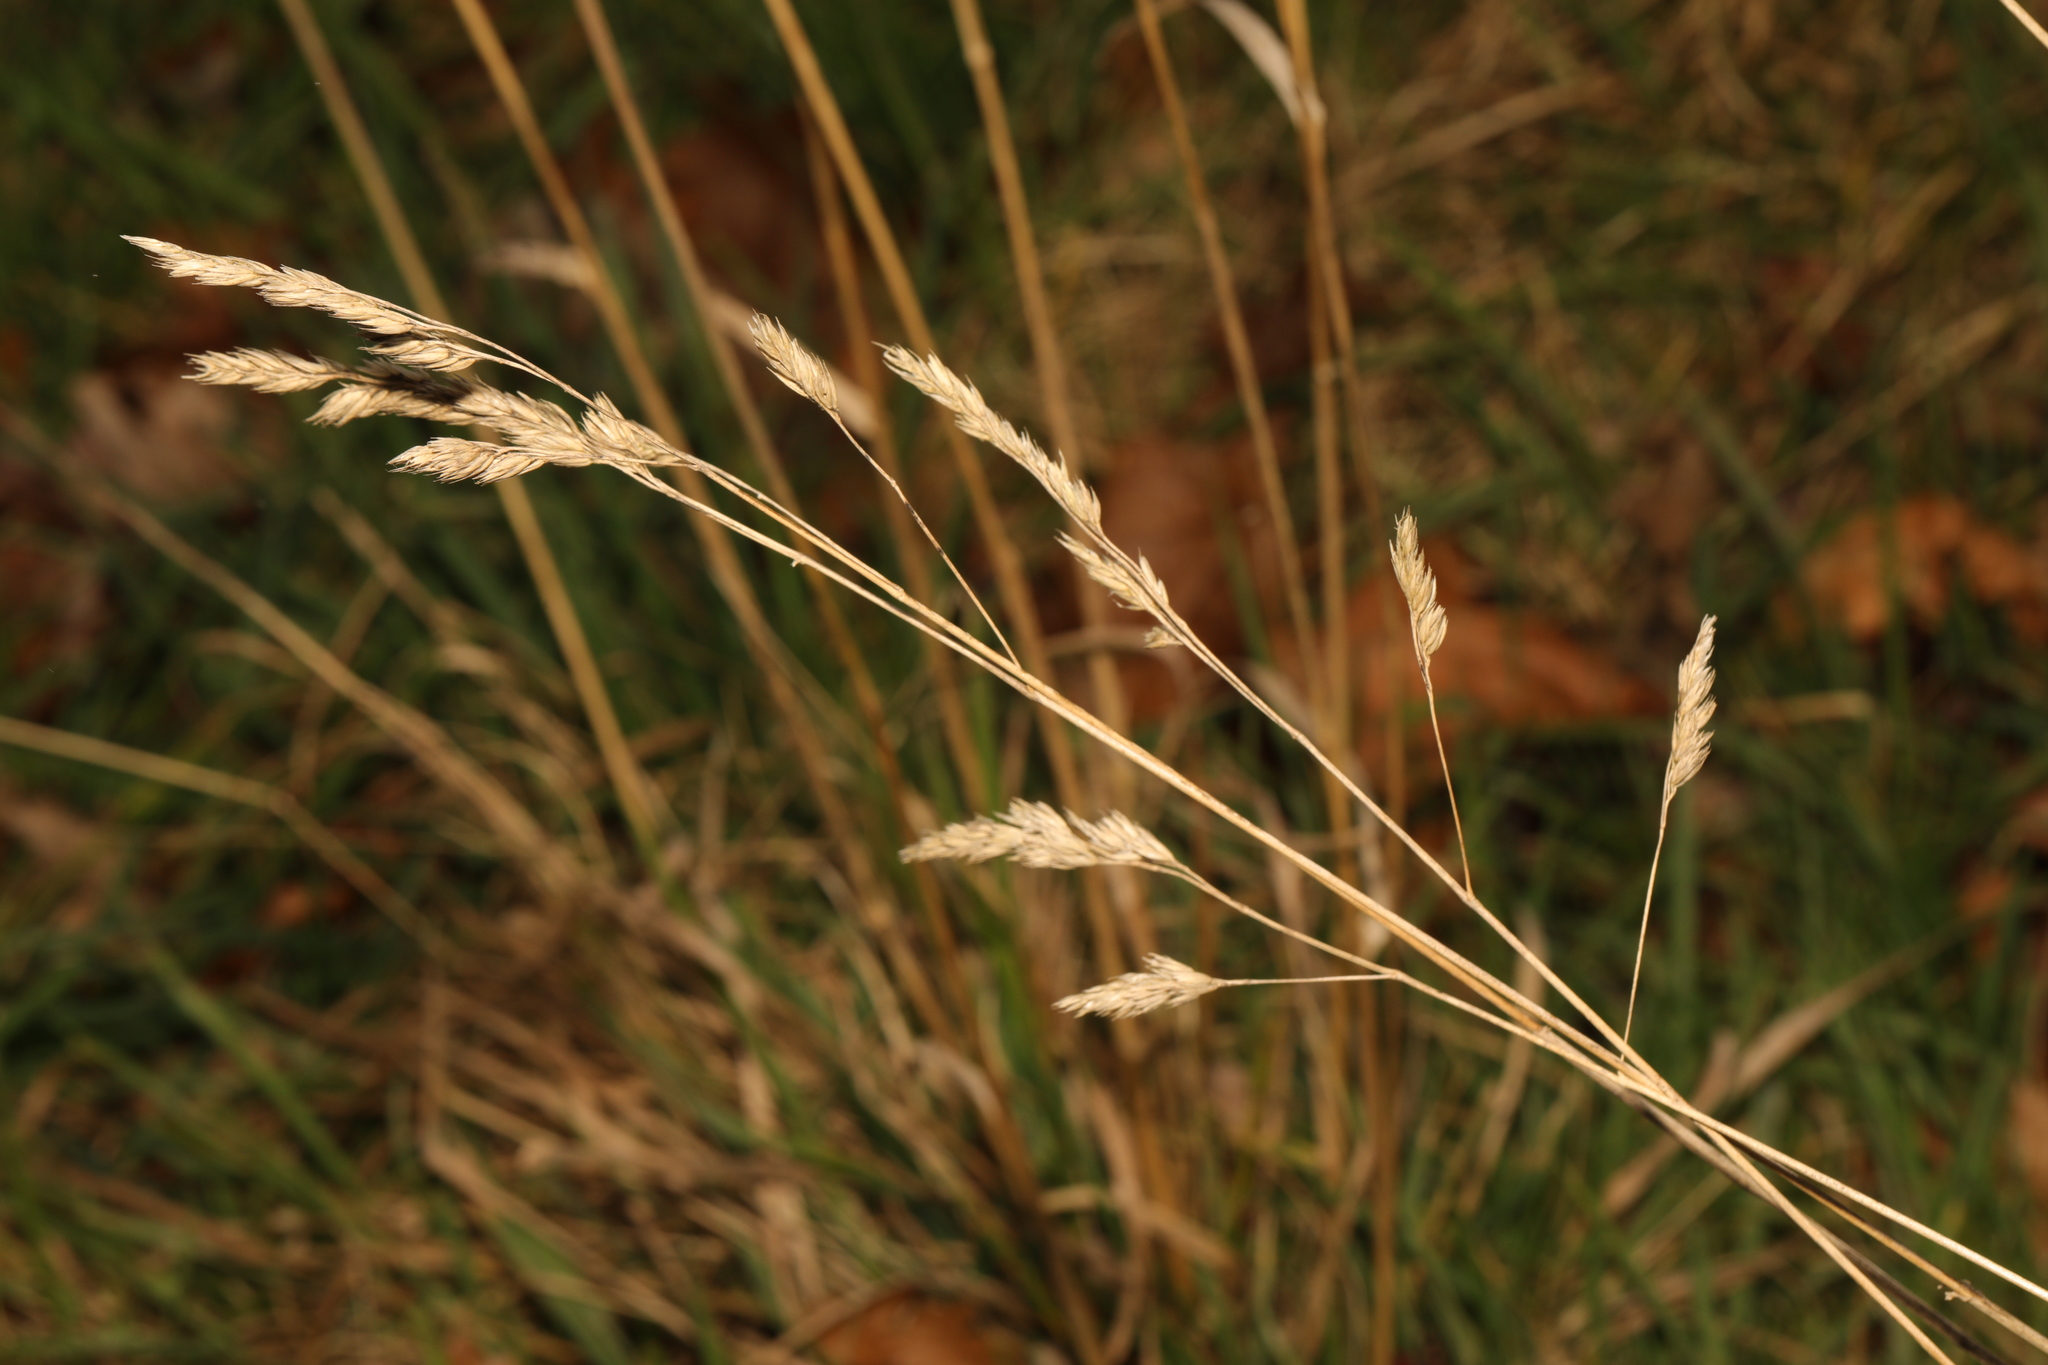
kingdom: Plantae
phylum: Tracheophyta
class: Liliopsida
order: Poales
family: Poaceae
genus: Dactylis
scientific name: Dactylis glomerata
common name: Orchardgrass
